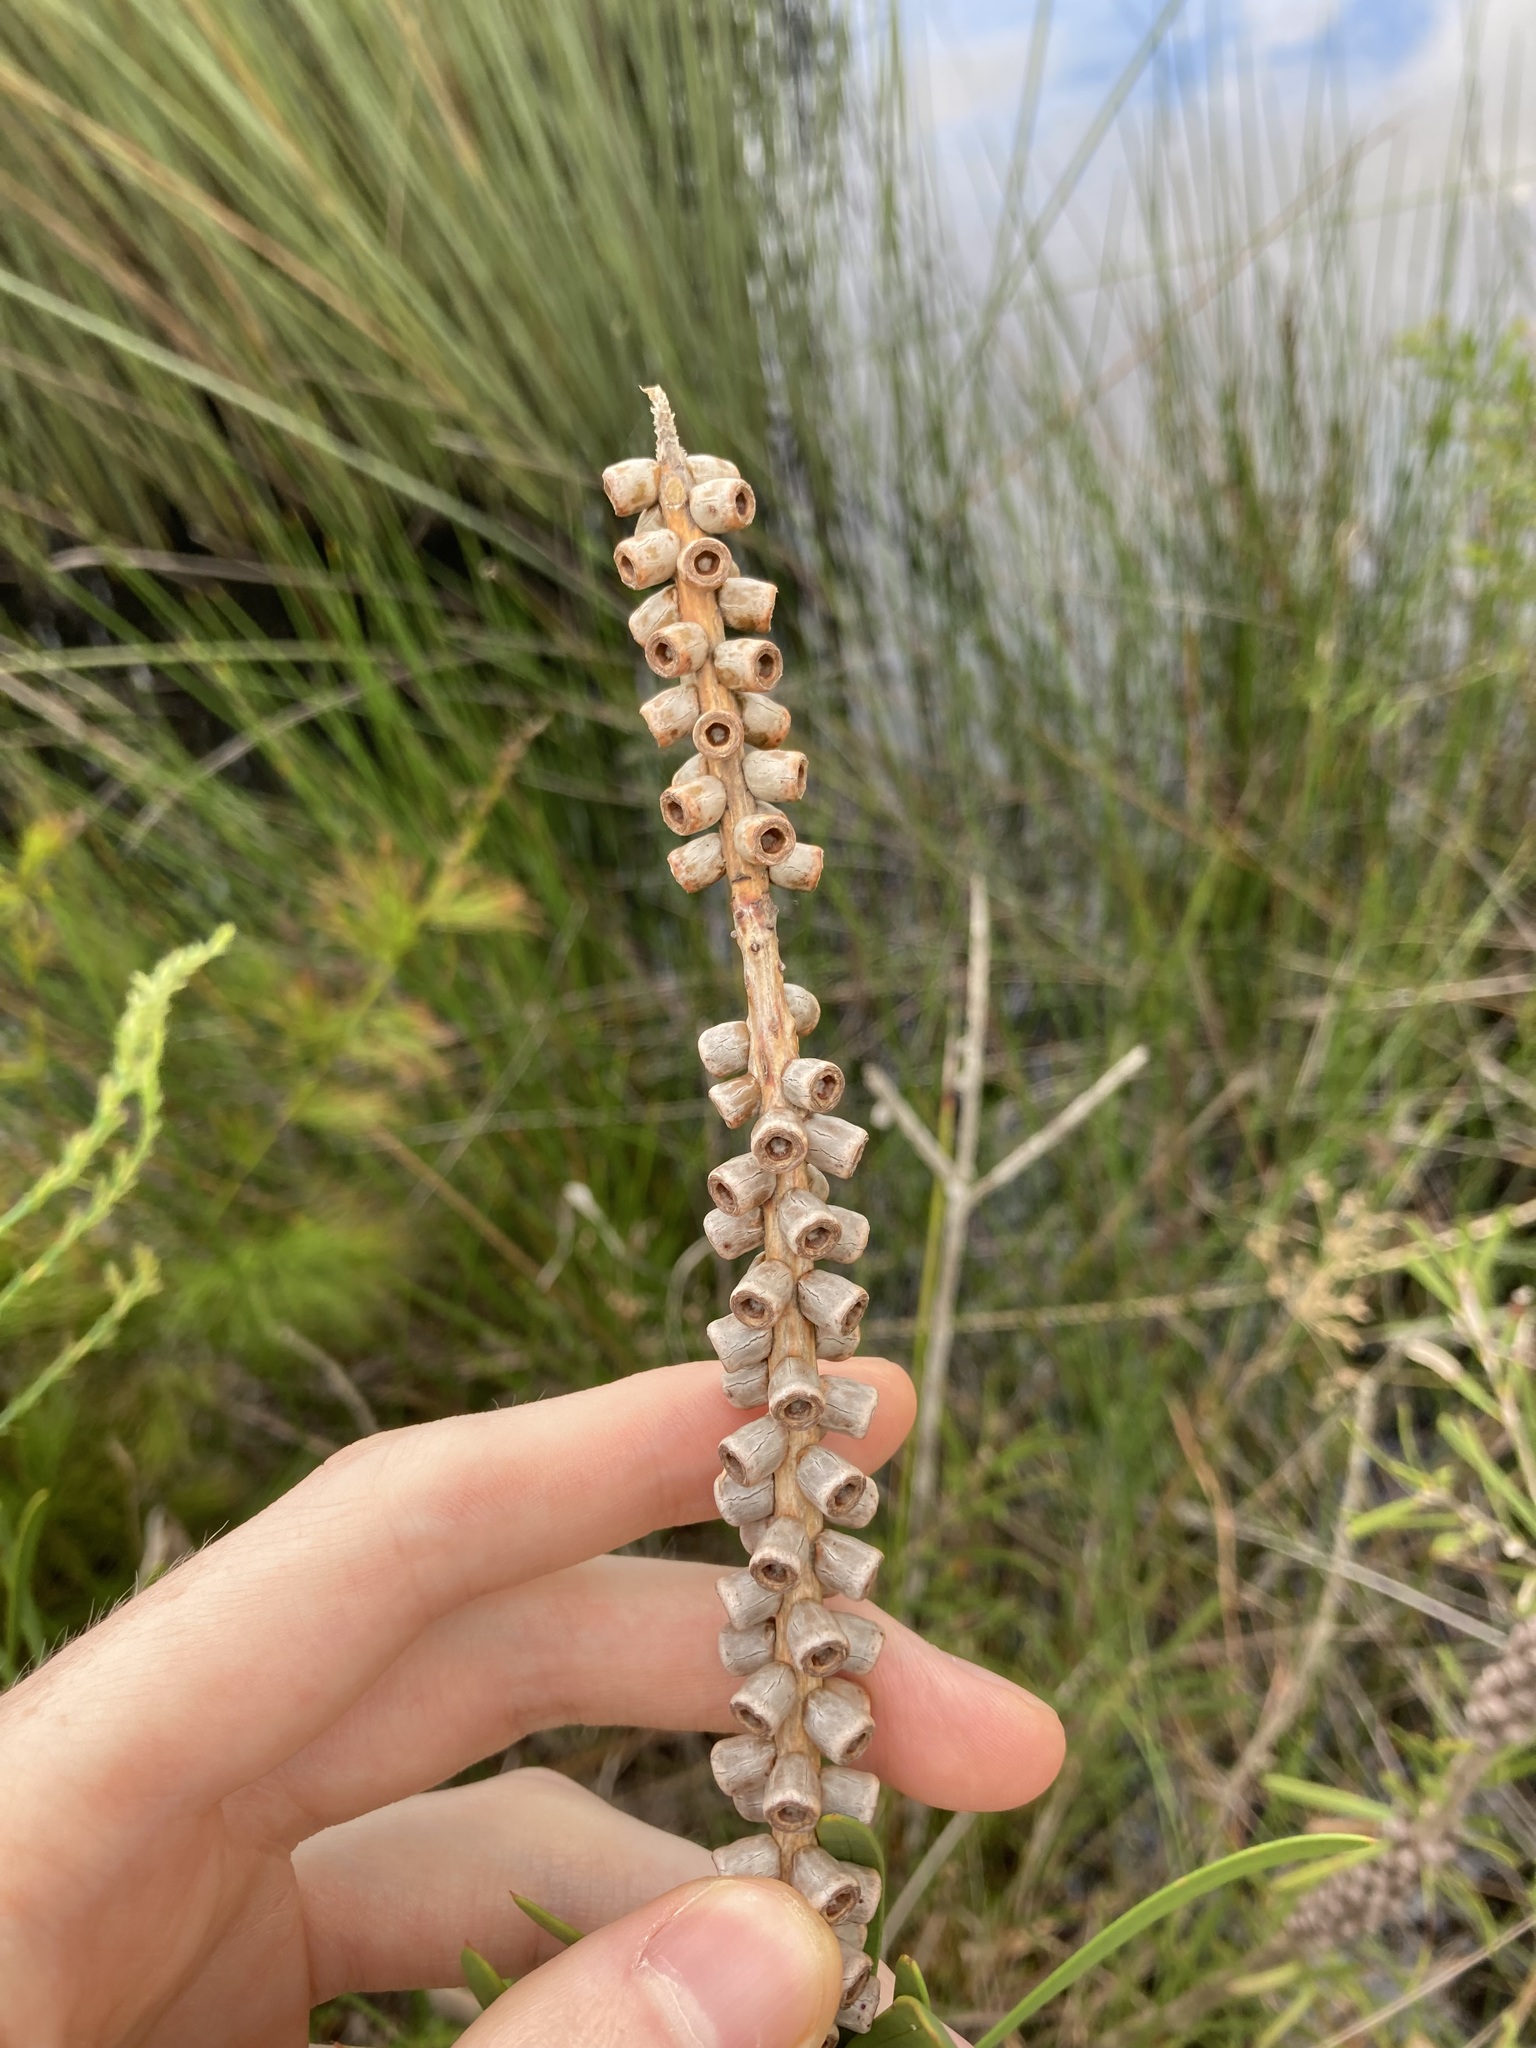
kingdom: Plantae
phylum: Tracheophyta
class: Magnoliopsida
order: Myrtales
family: Myrtaceae
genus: Callistemon
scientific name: Callistemon pachyphyllus
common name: Wallum bottlebrush
